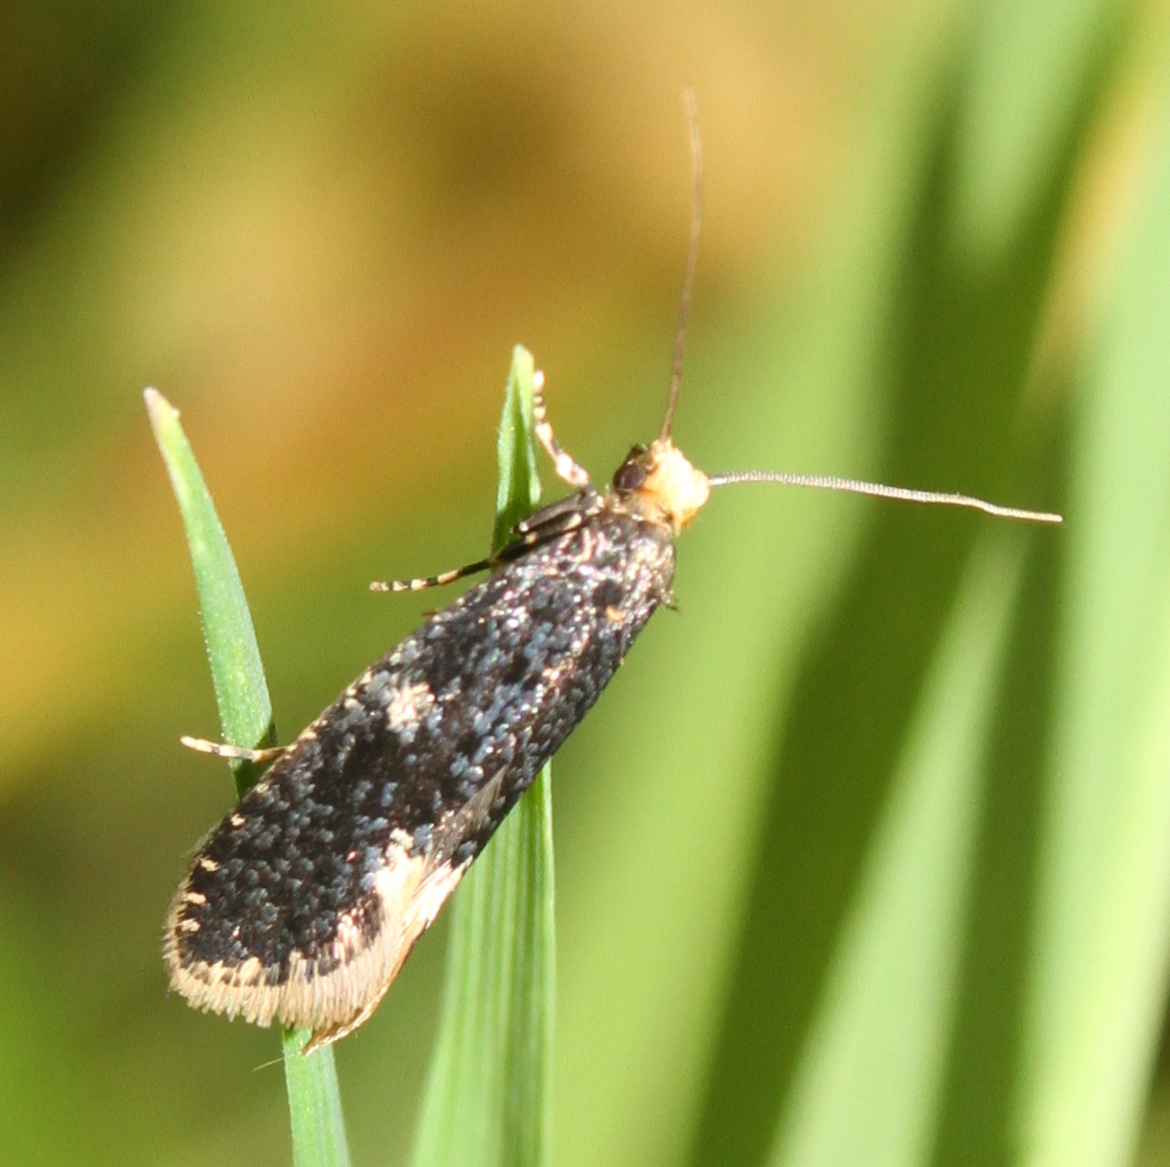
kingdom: Animalia
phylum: Arthropoda
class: Insecta
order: Lepidoptera
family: Tineidae
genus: Monopis
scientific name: Monopis weaverella
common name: Carrion moth
